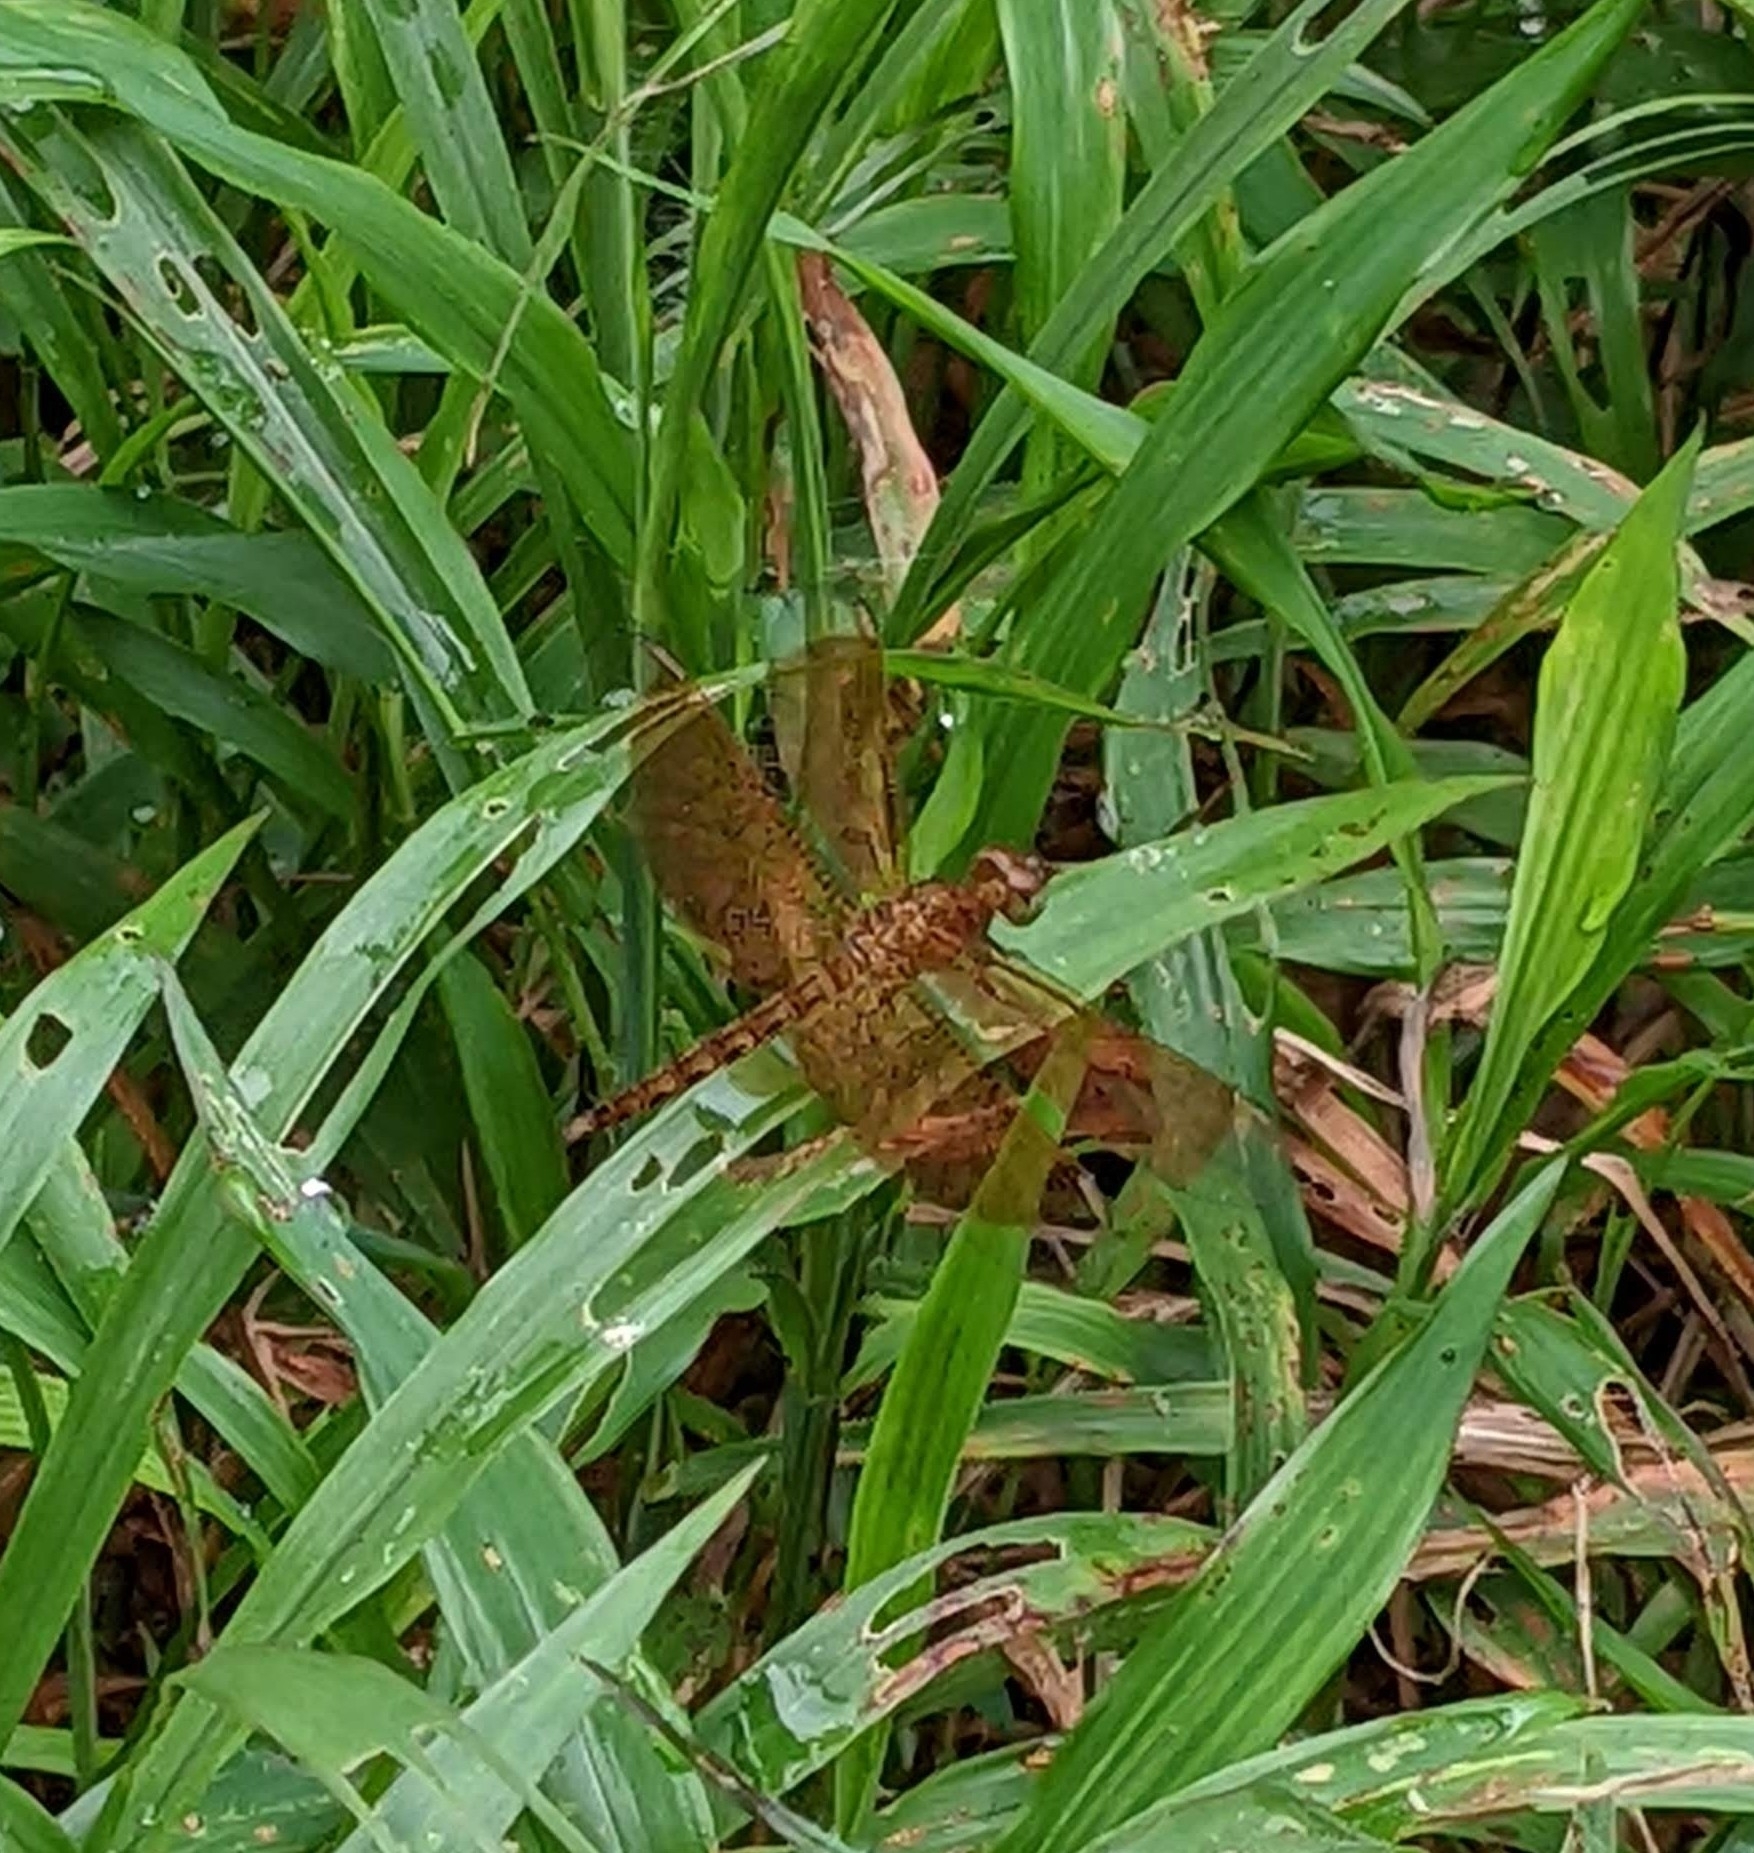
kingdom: Animalia
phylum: Arthropoda
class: Insecta
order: Odonata
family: Libellulidae
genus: Neurothemis
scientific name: Neurothemis fluctuans
